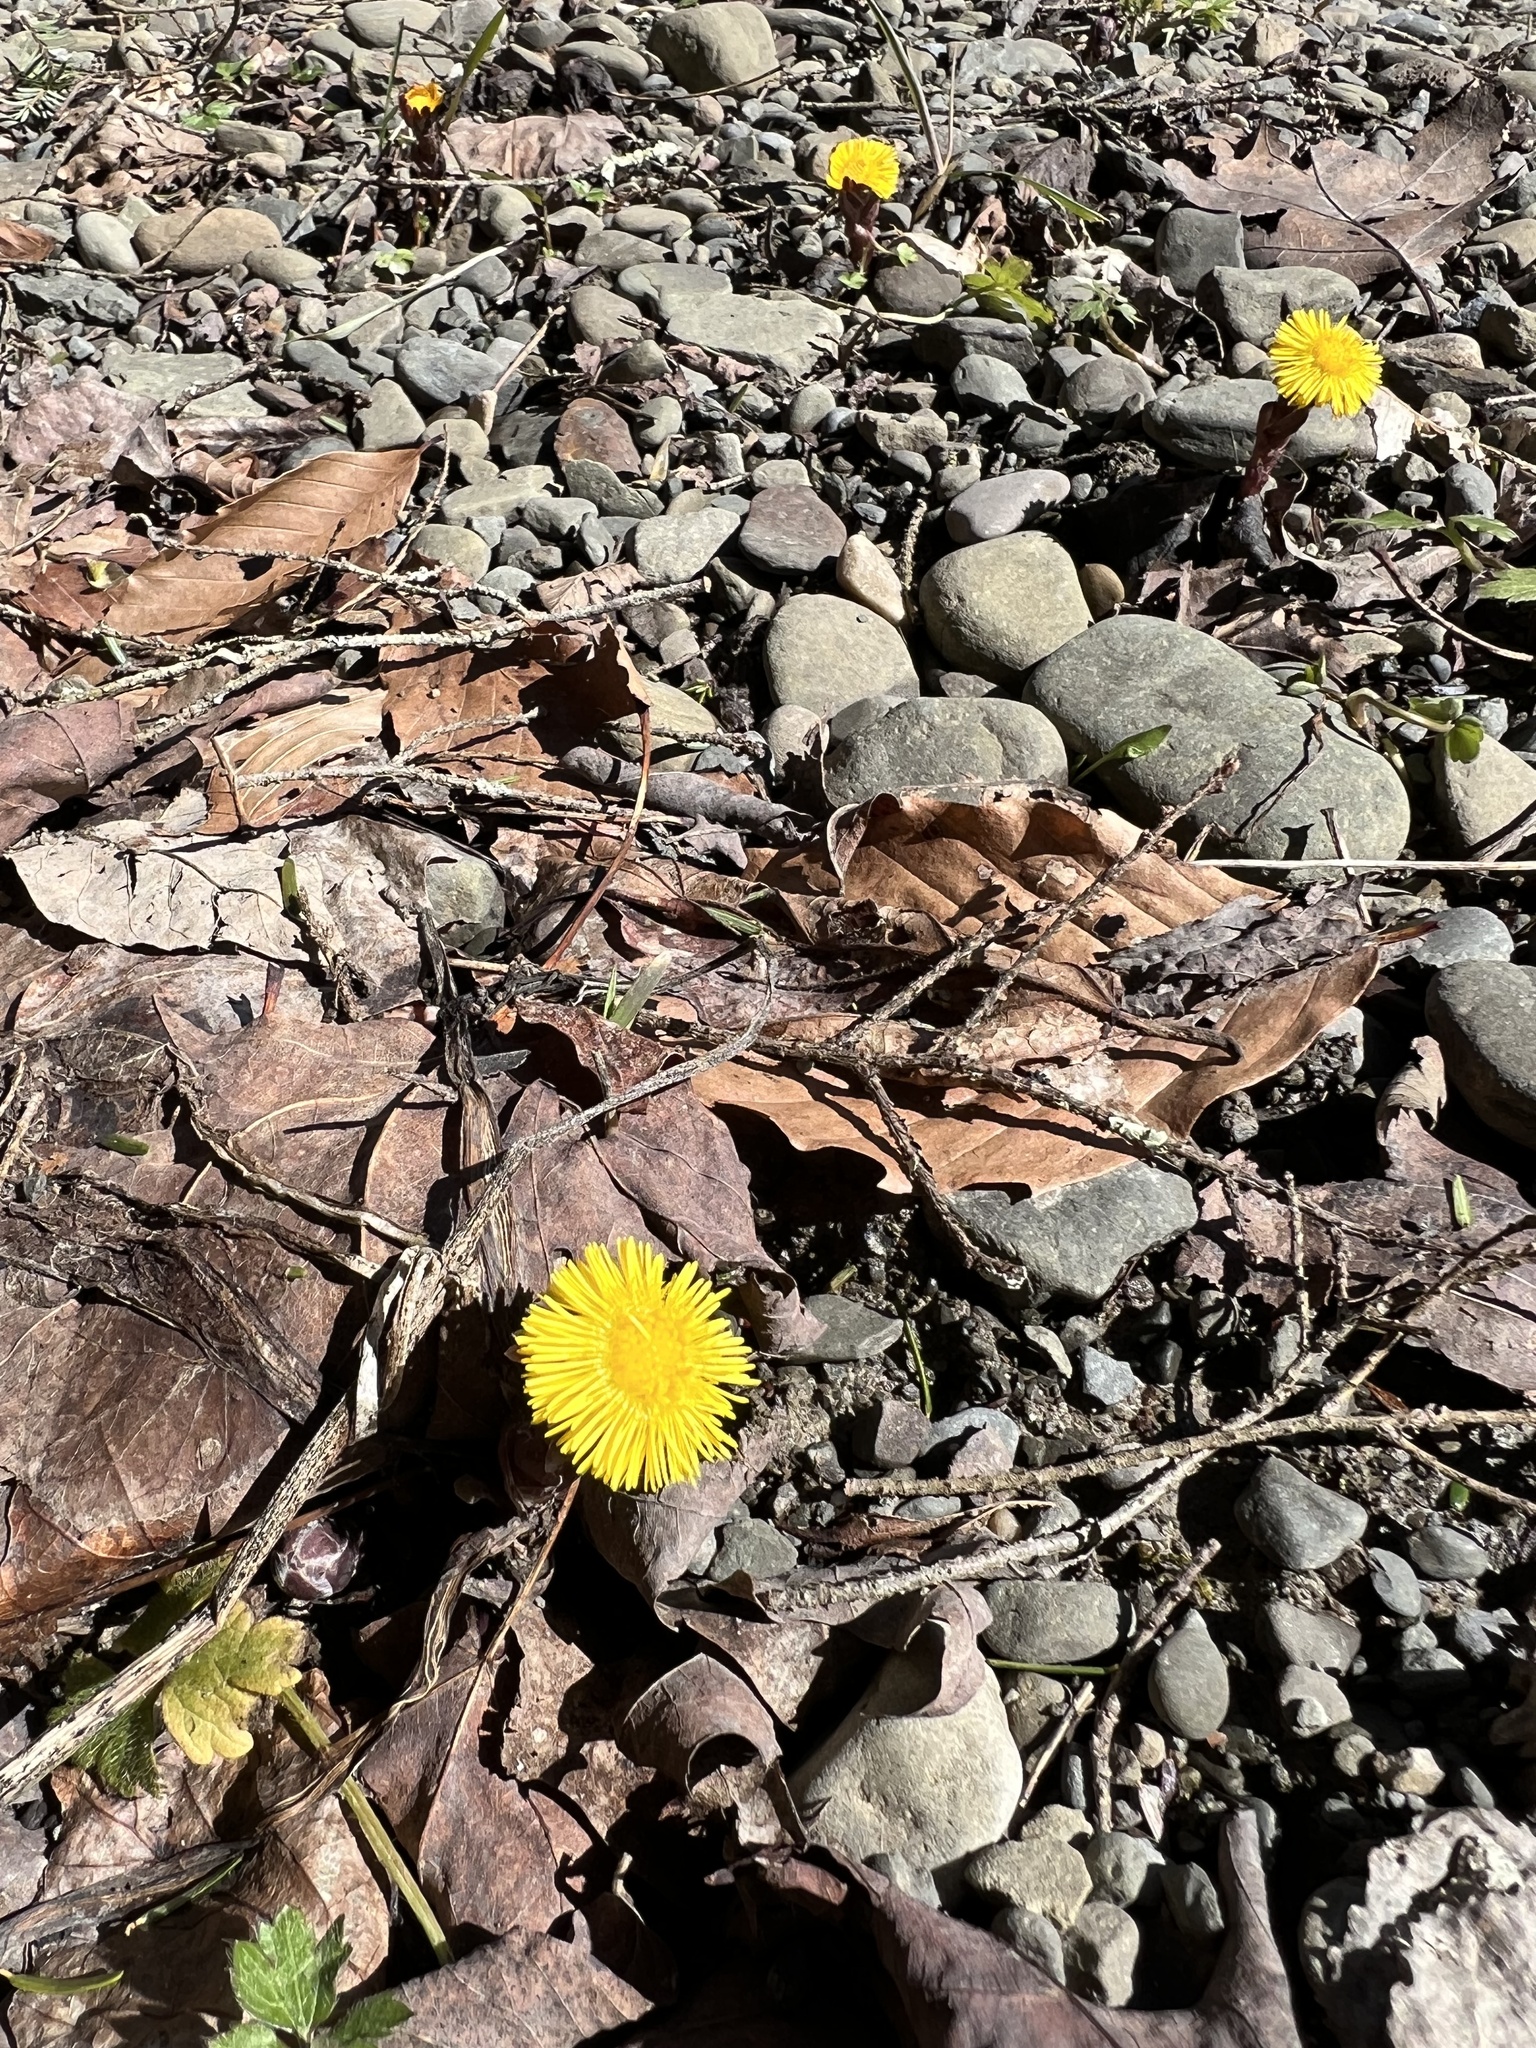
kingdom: Plantae
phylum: Tracheophyta
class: Magnoliopsida
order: Asterales
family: Asteraceae
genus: Tussilago
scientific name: Tussilago farfara
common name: Coltsfoot
